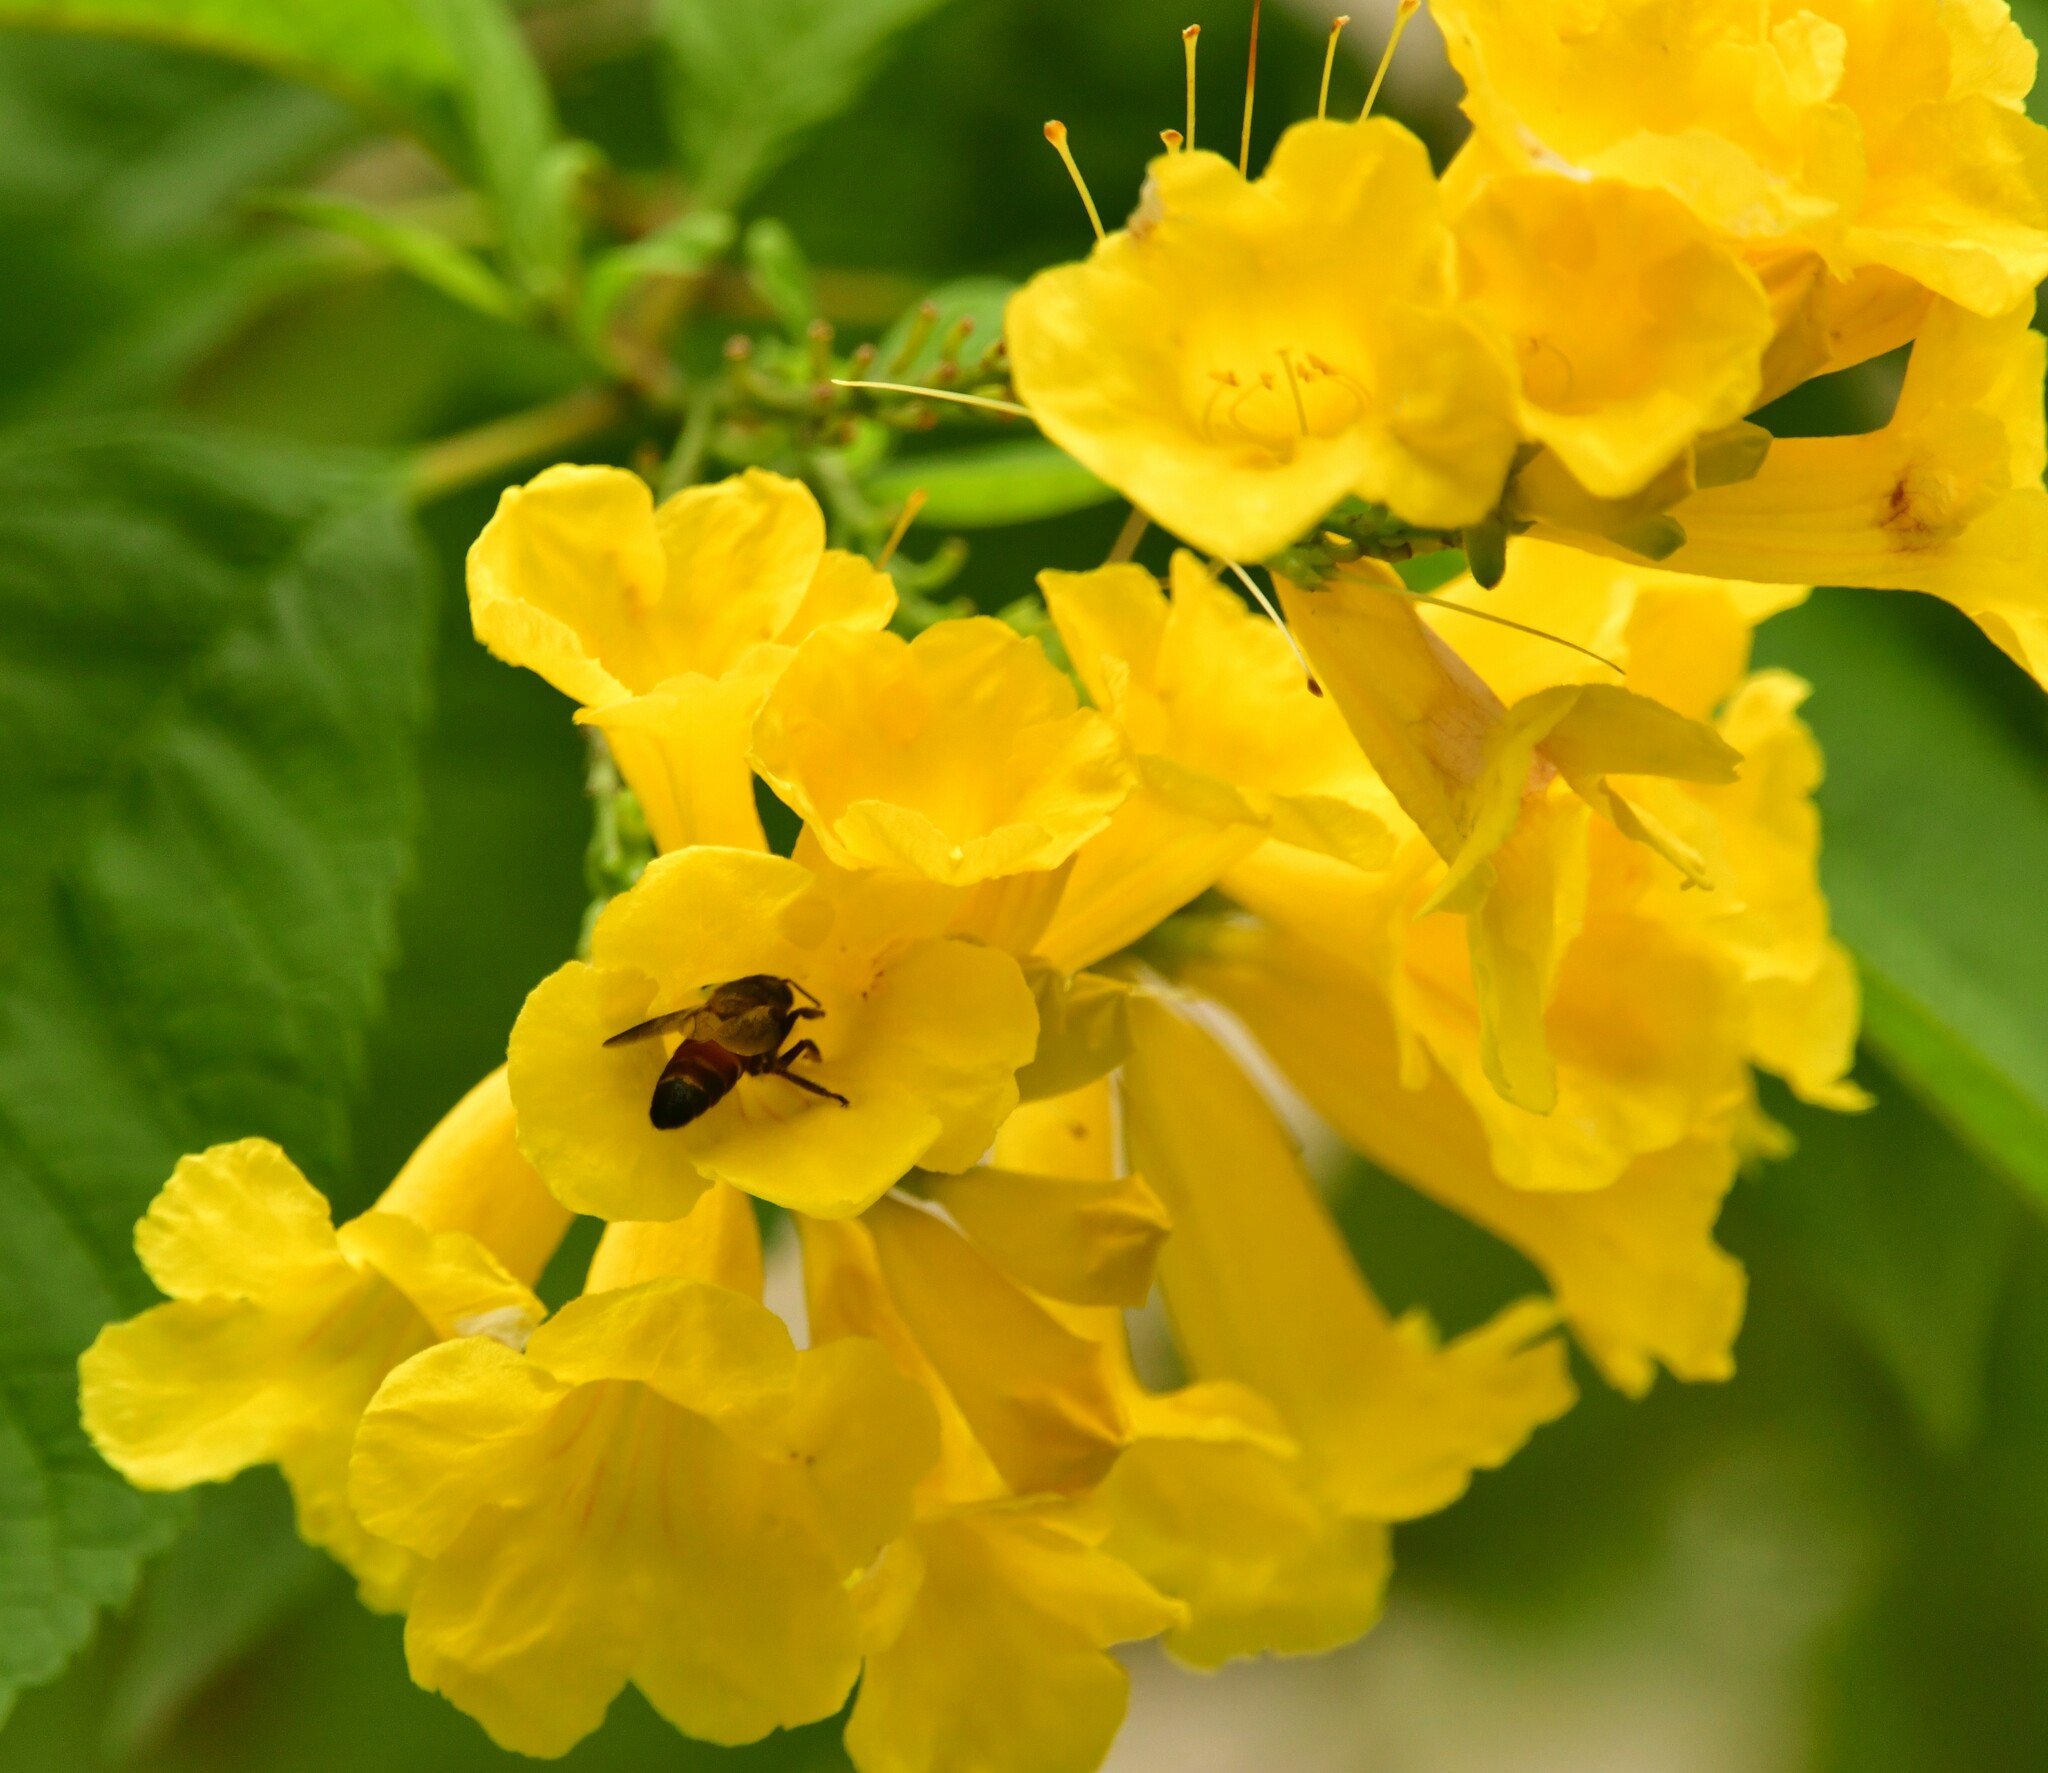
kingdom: Animalia
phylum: Arthropoda
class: Insecta
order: Hymenoptera
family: Apidae
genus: Apis
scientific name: Apis dorsata
